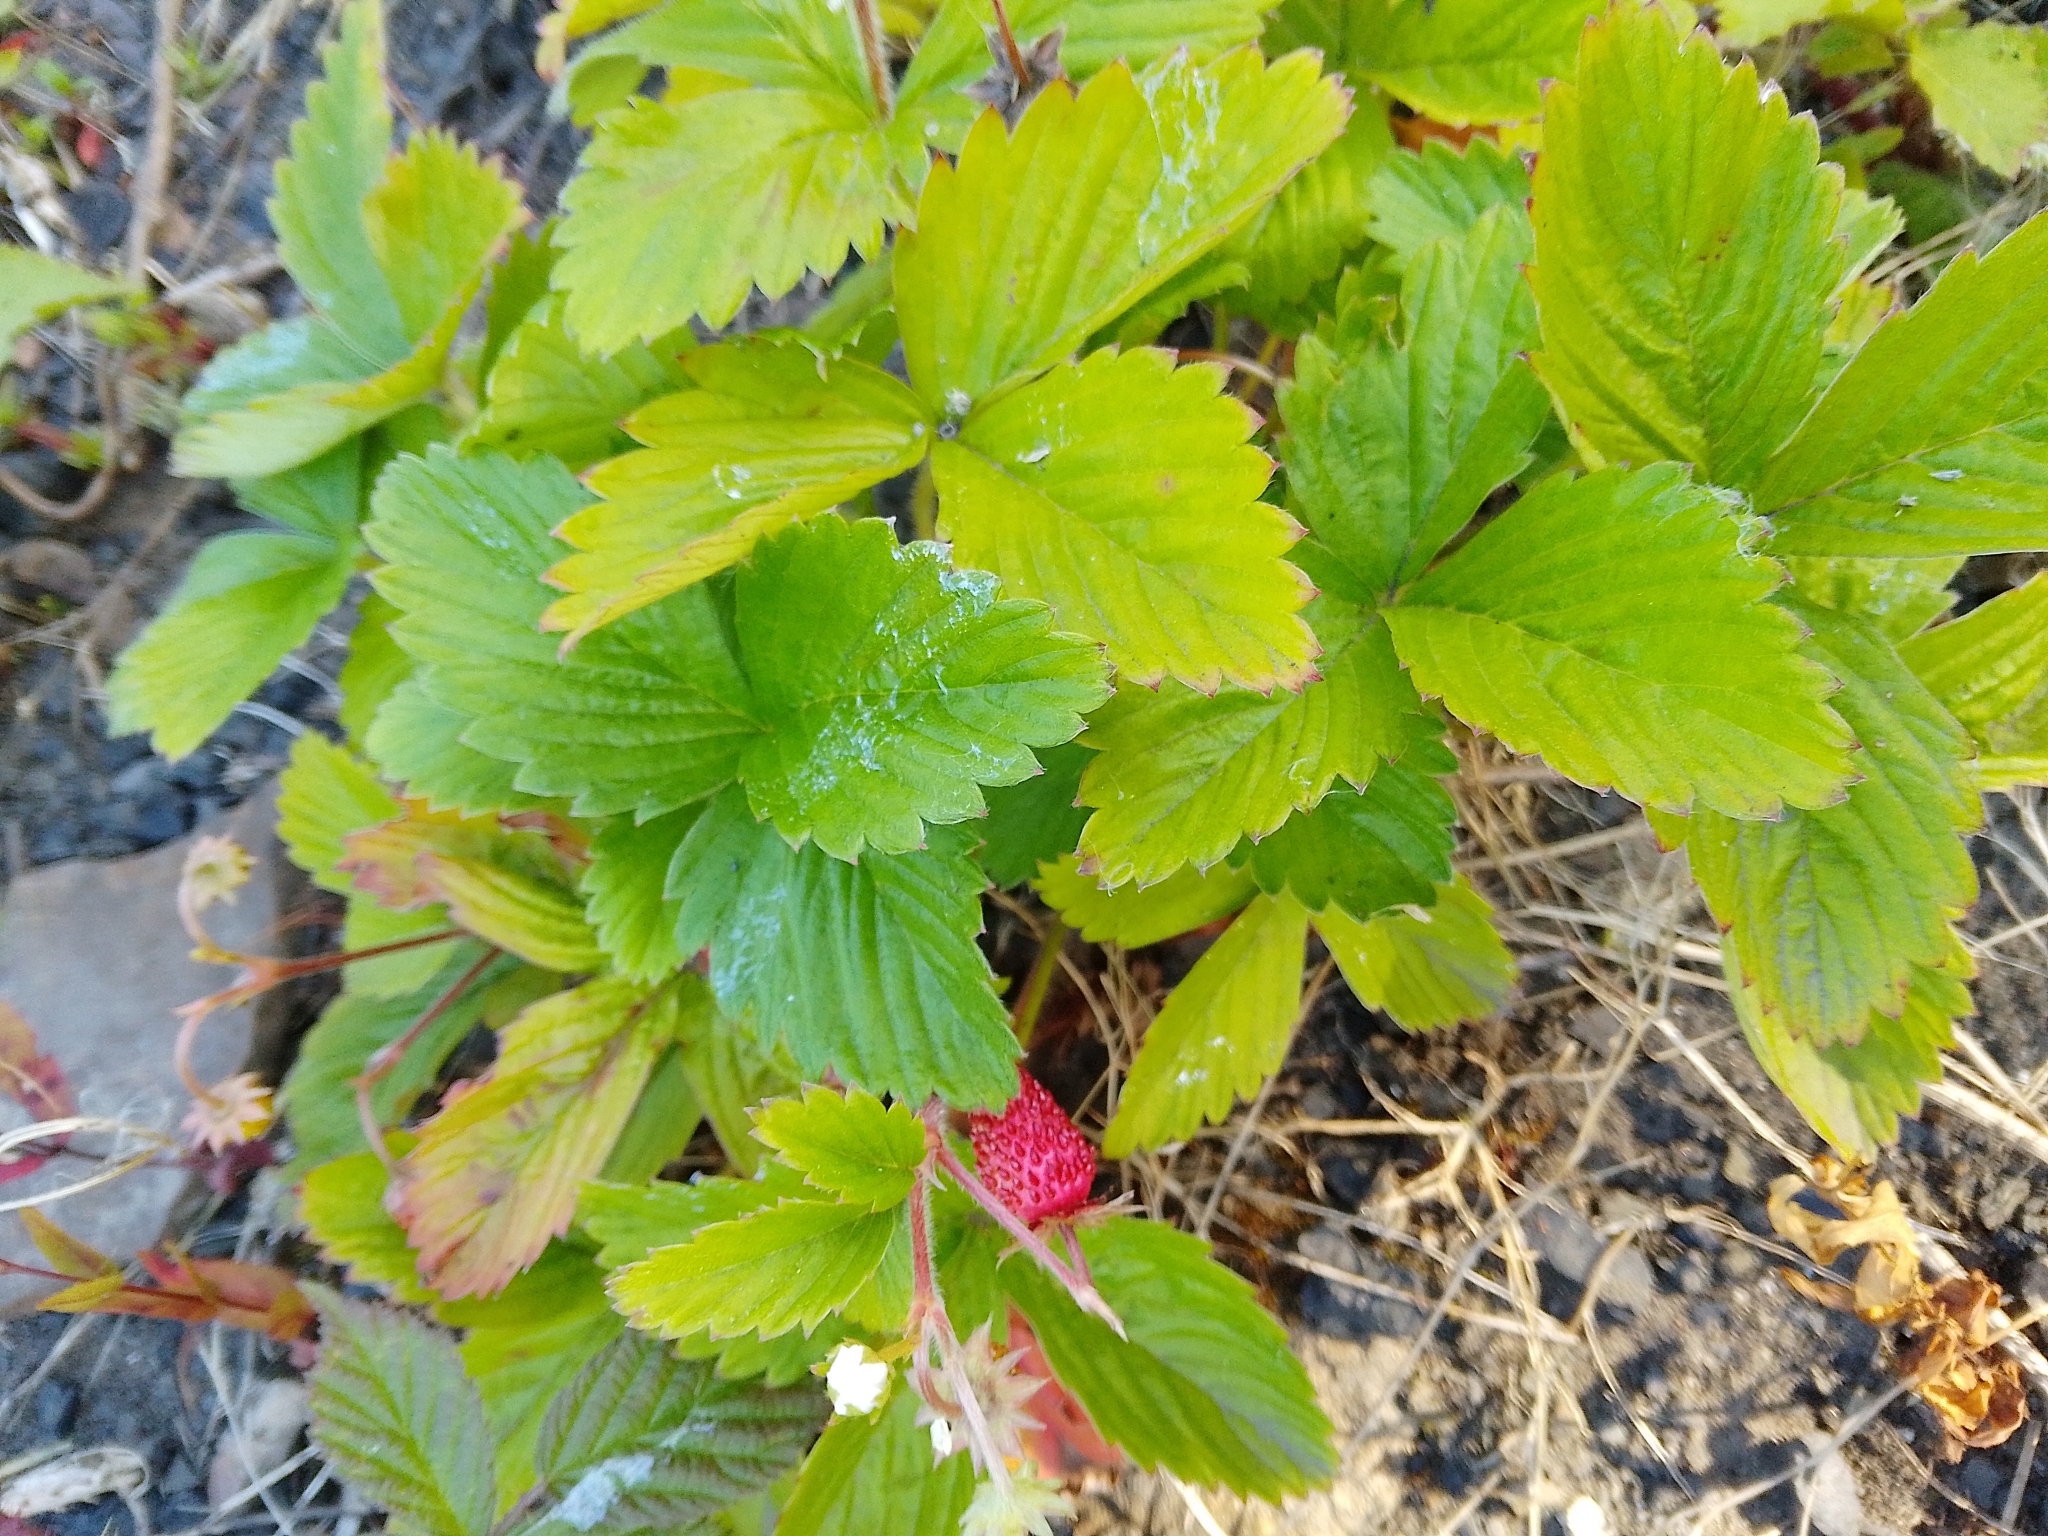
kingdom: Plantae
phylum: Tracheophyta
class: Magnoliopsida
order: Rosales
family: Rosaceae
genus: Fragaria
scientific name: Fragaria vesca
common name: Wild strawberry
